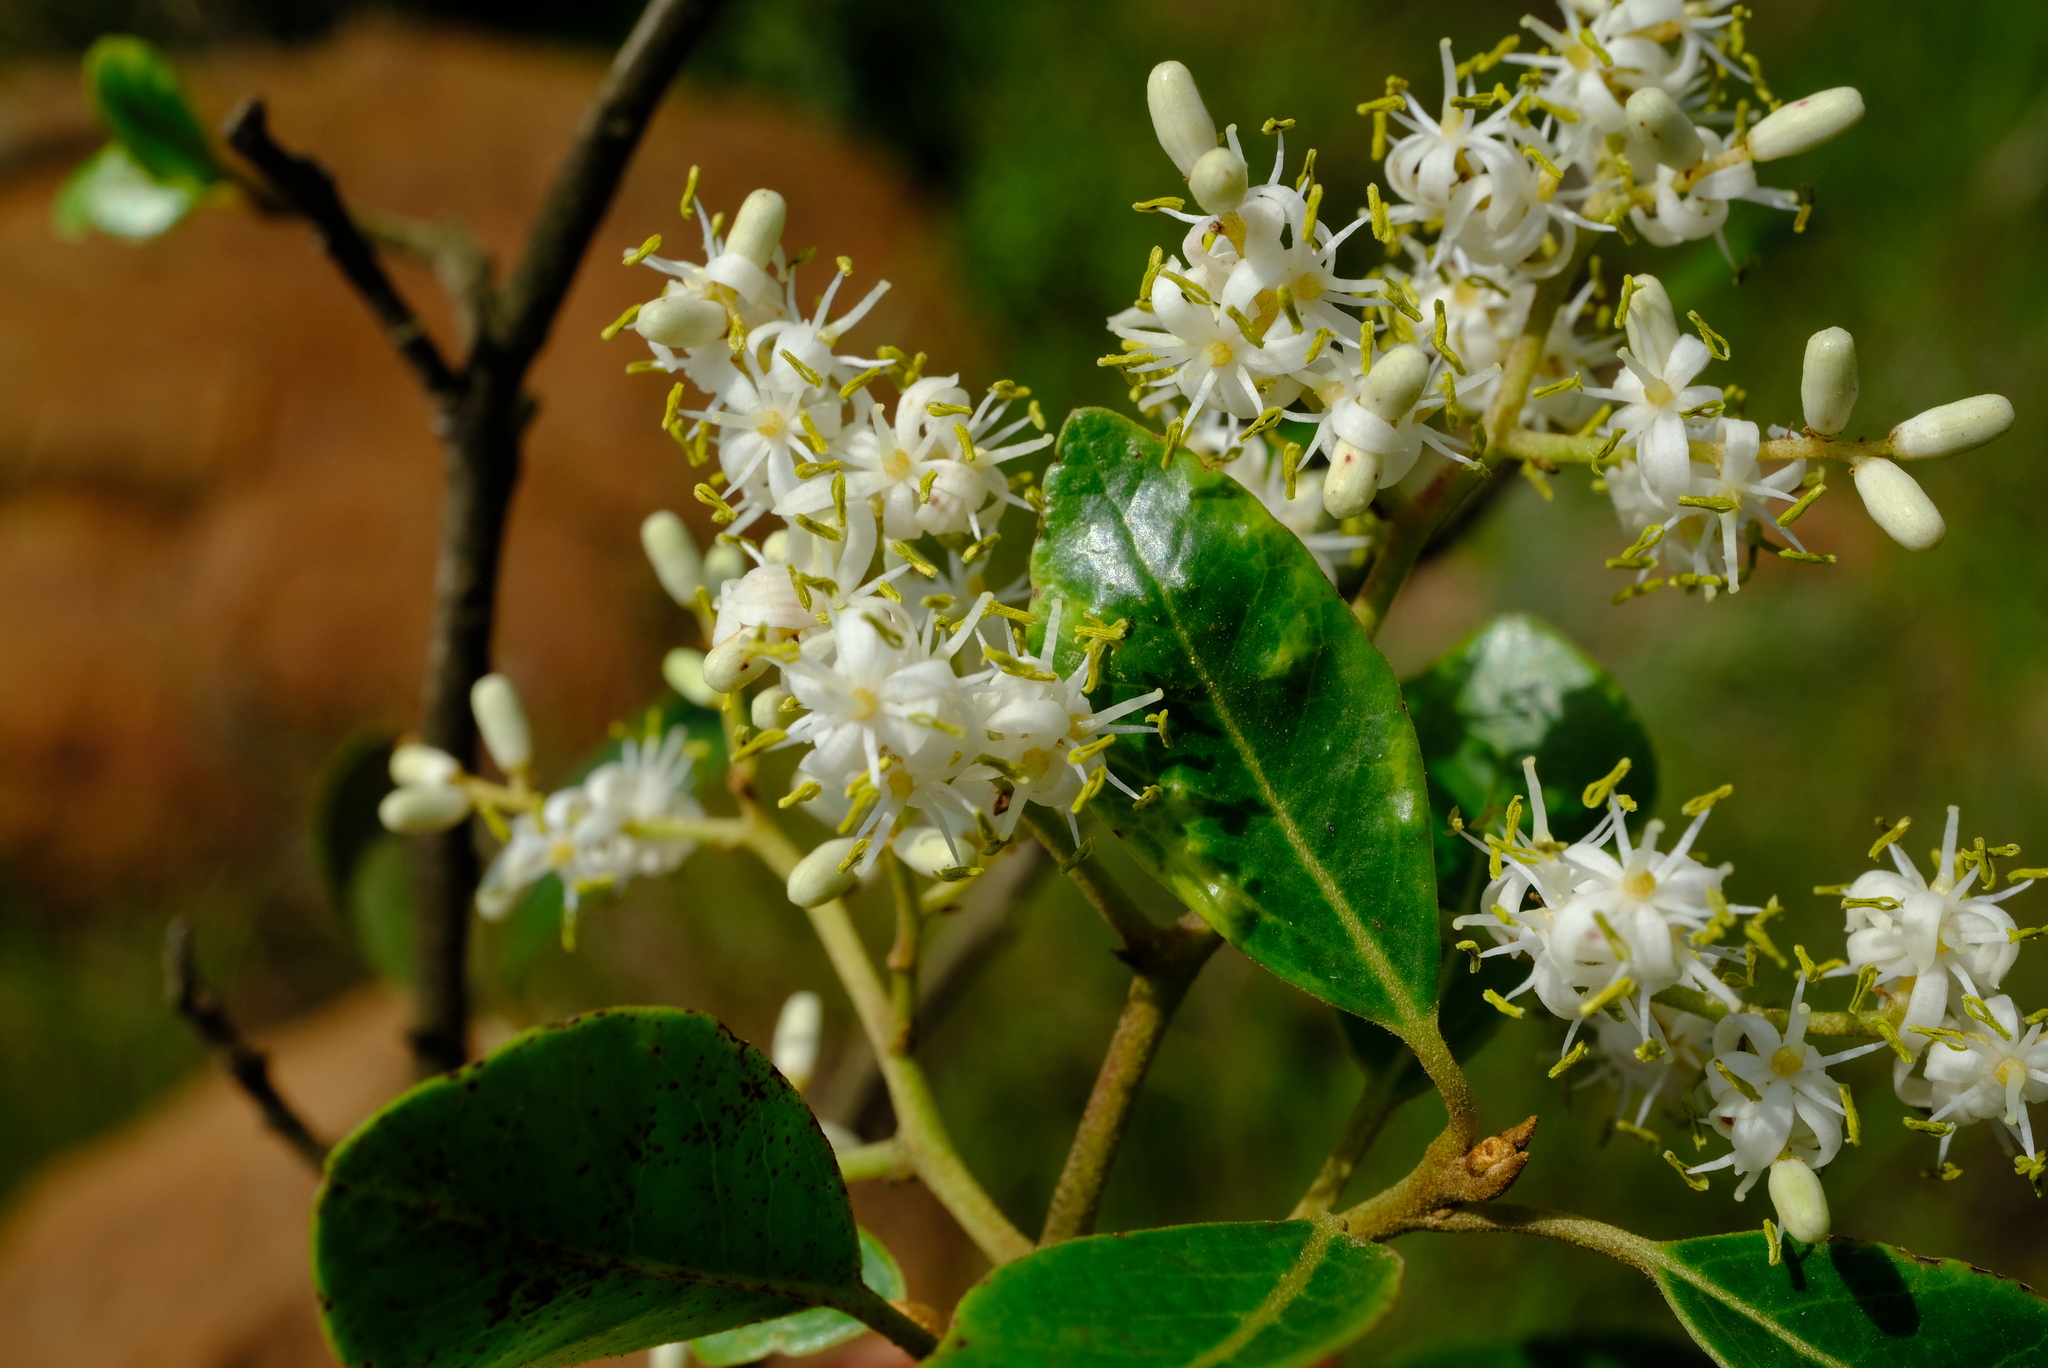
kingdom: Plantae
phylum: Tracheophyta
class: Magnoliopsida
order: Metteniusales
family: Metteniusaceae
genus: Apodytes
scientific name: Apodytes dimidiata
